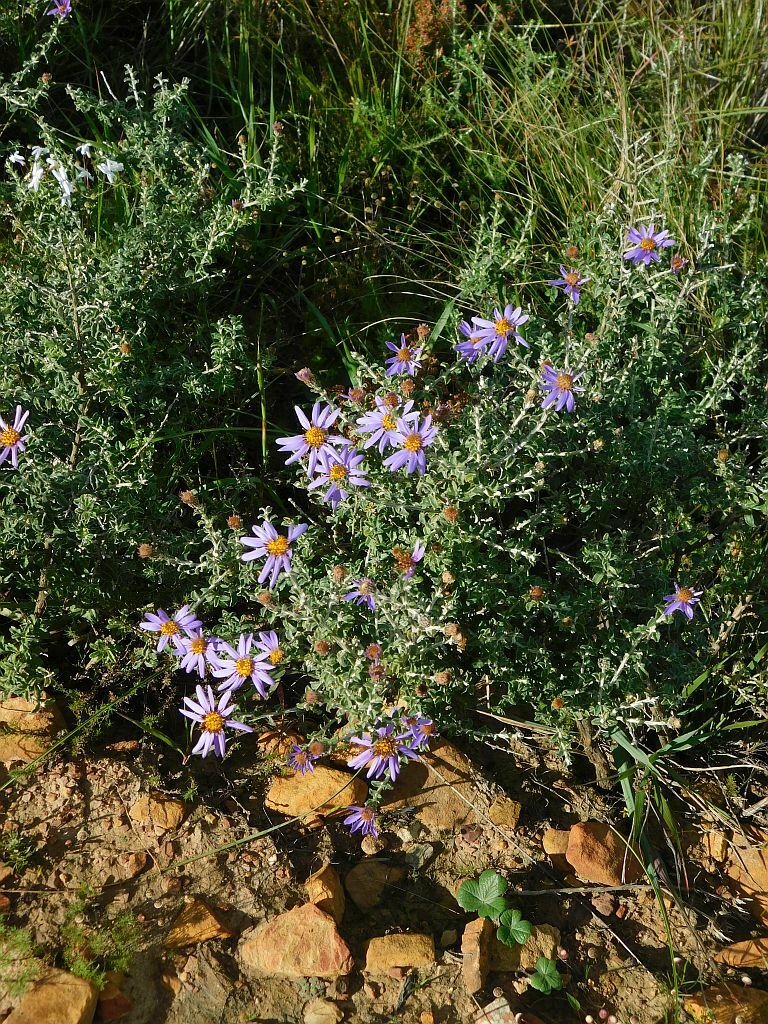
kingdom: Plantae
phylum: Tracheophyta
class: Magnoliopsida
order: Asterales
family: Asteraceae
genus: Printzia
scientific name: Printzia polifolia
